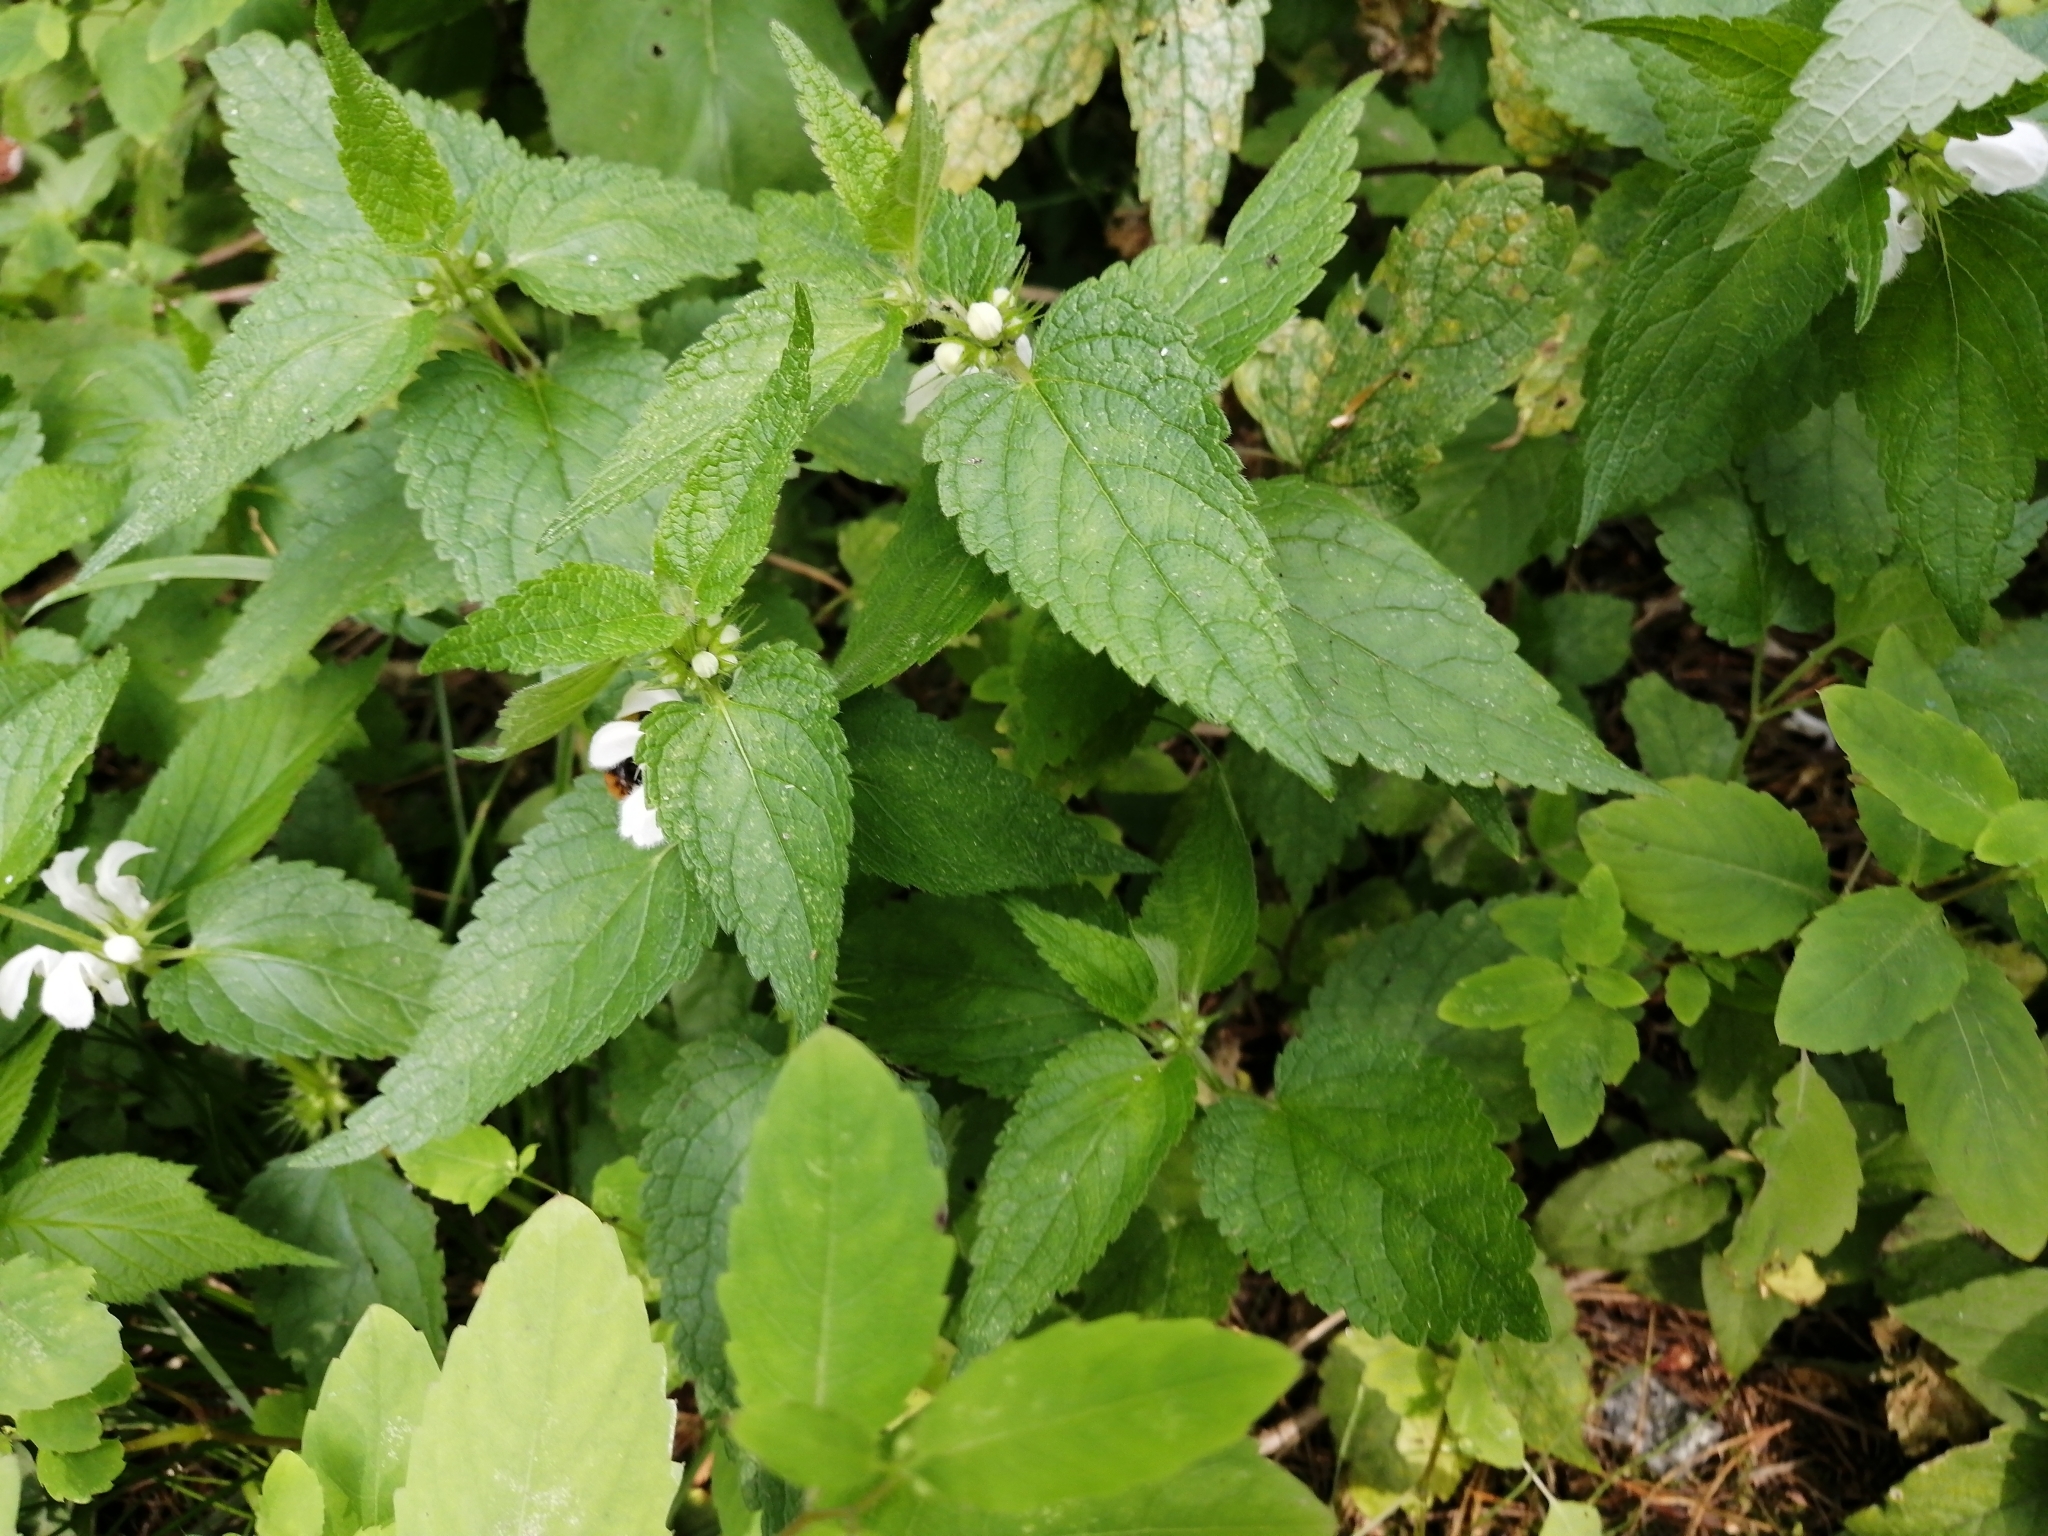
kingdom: Plantae
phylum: Tracheophyta
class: Magnoliopsida
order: Lamiales
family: Lamiaceae
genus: Lamium
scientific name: Lamium album
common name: White dead-nettle
